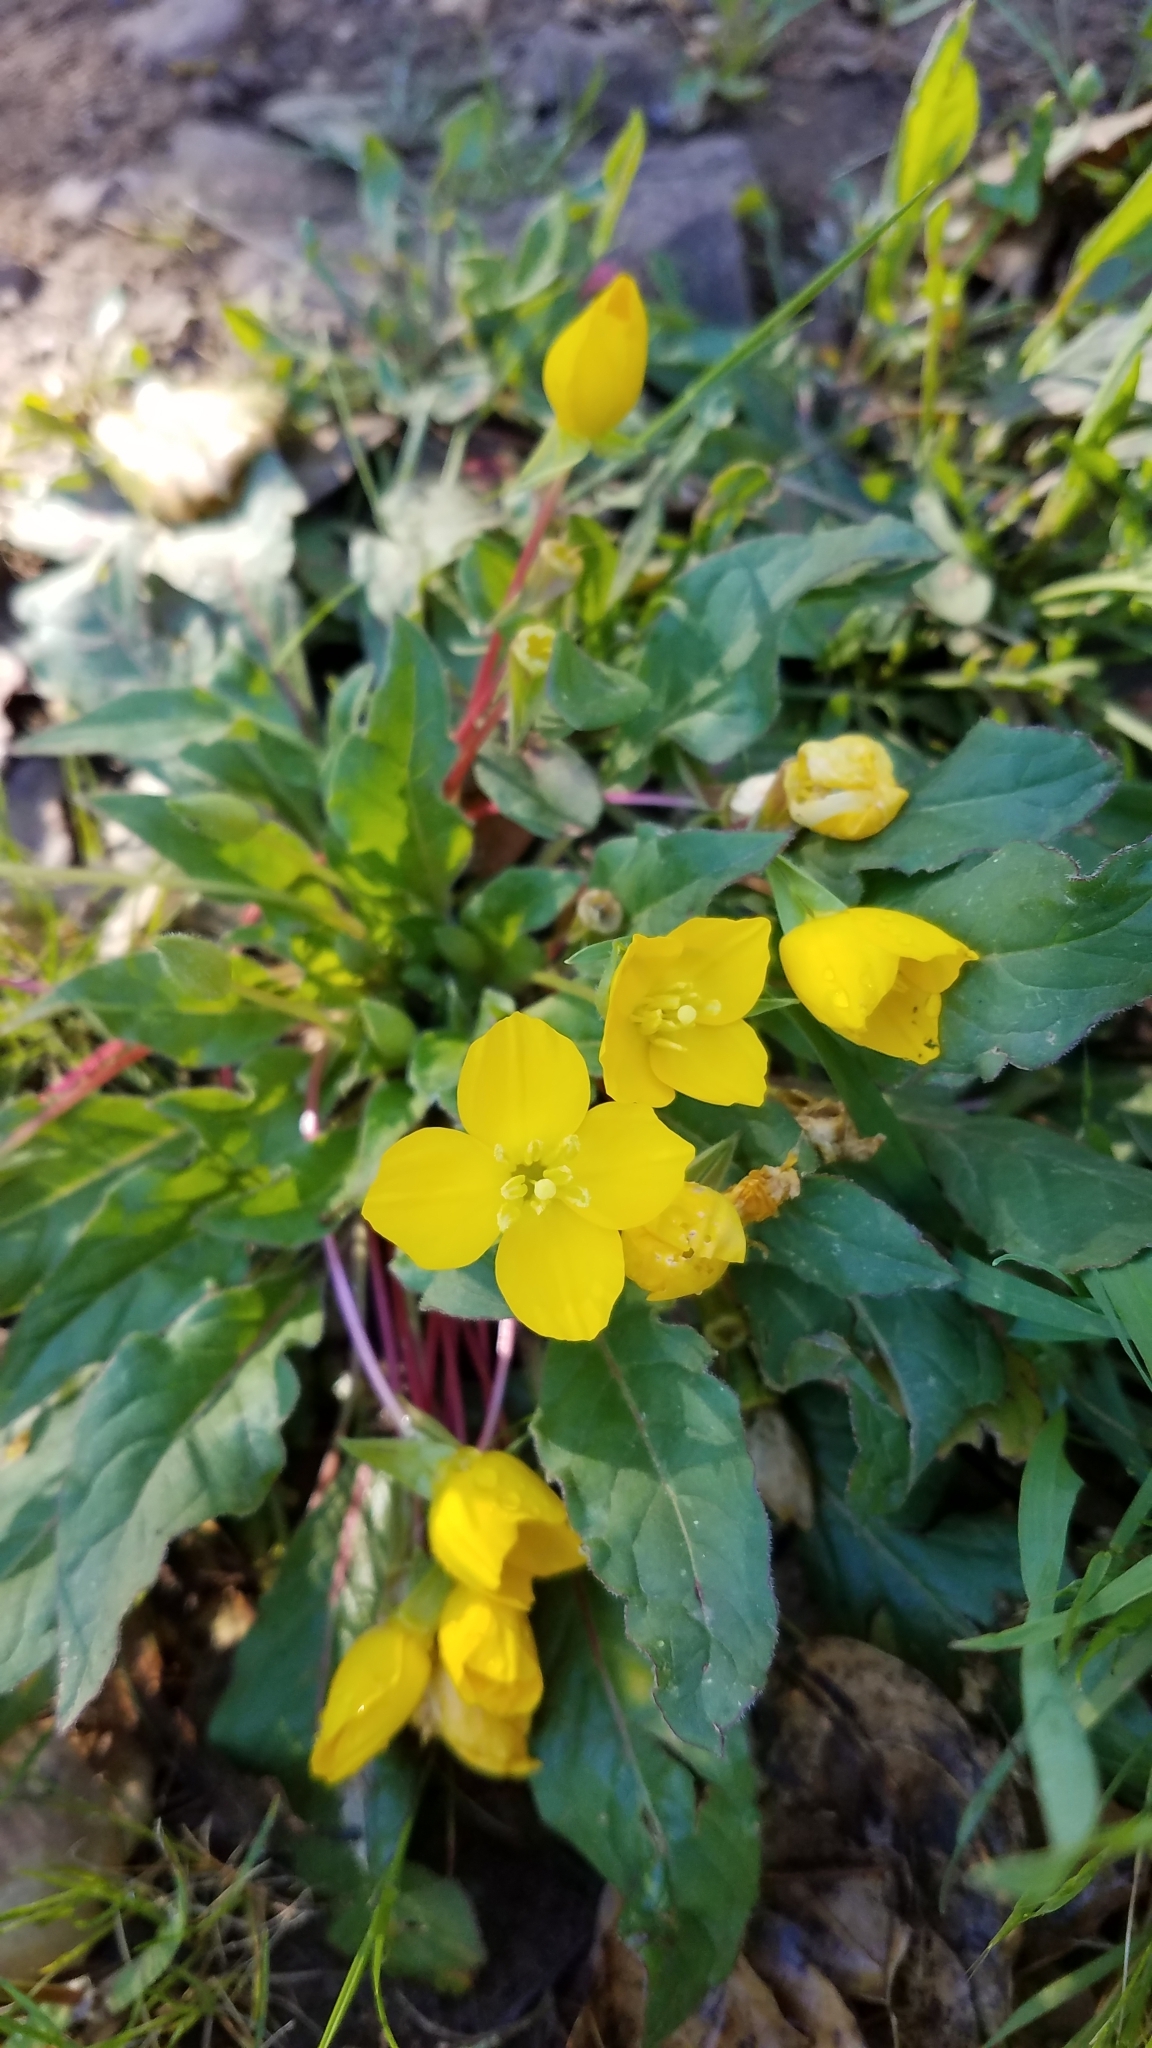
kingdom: Plantae
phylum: Tracheophyta
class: Magnoliopsida
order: Myrtales
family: Onagraceae
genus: Taraxia
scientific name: Taraxia ovata
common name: Goldeneggs
